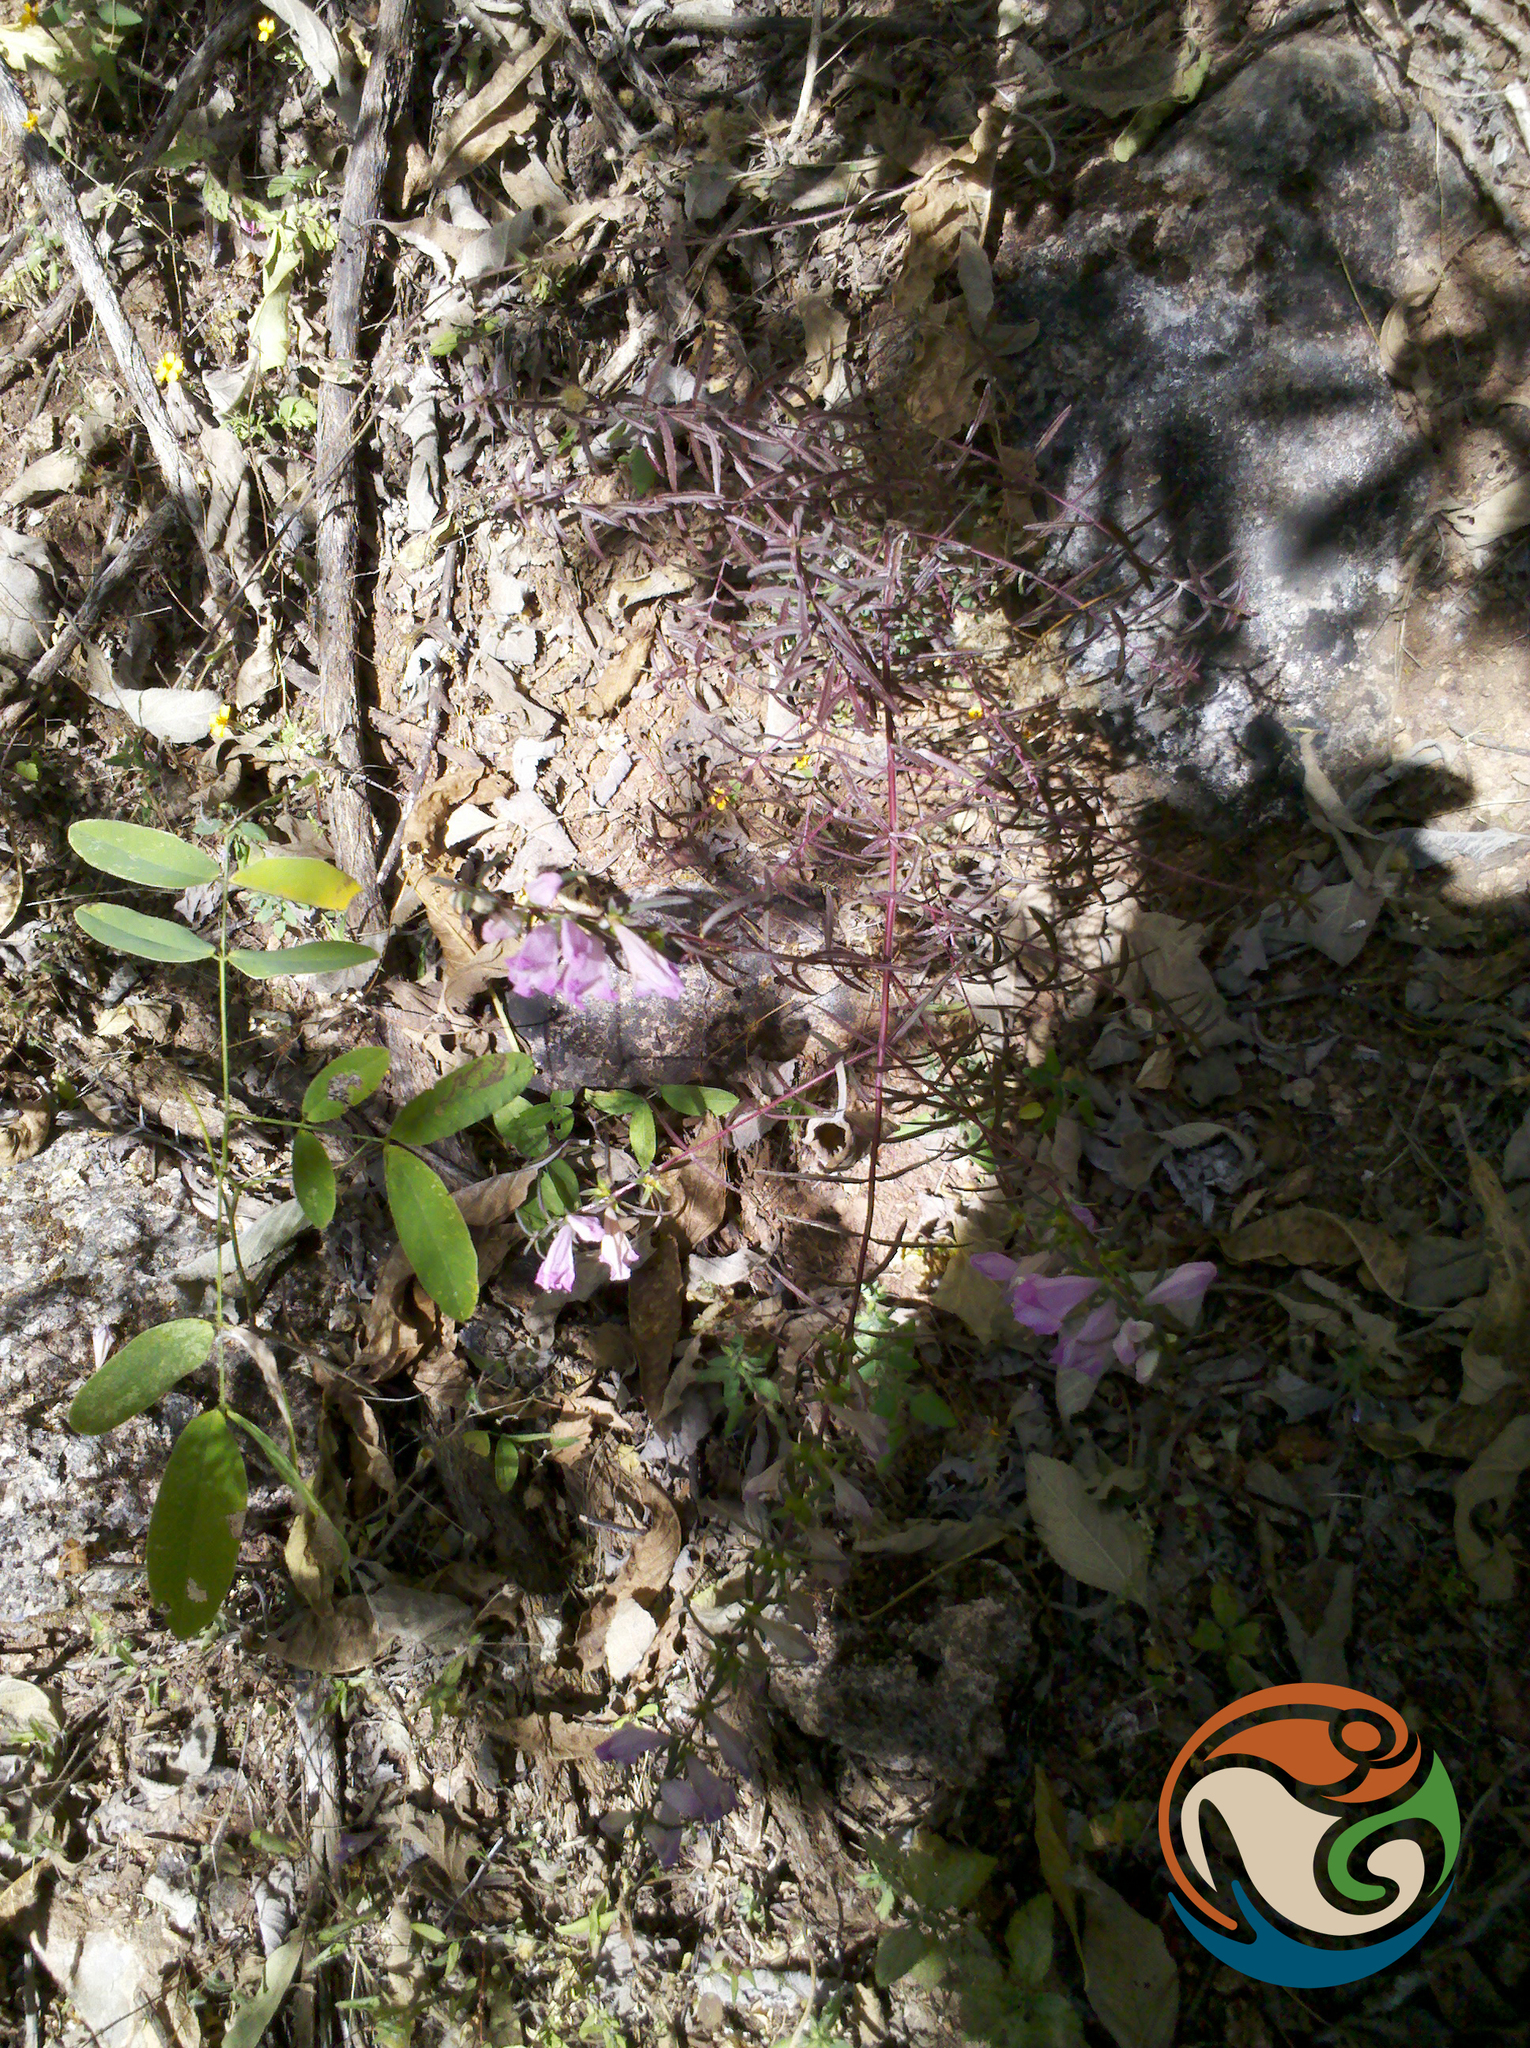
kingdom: Plantae
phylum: Tracheophyta
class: Magnoliopsida
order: Lamiales
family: Orobanchaceae
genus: Lamourouxia
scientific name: Lamourouxia dasyantha
